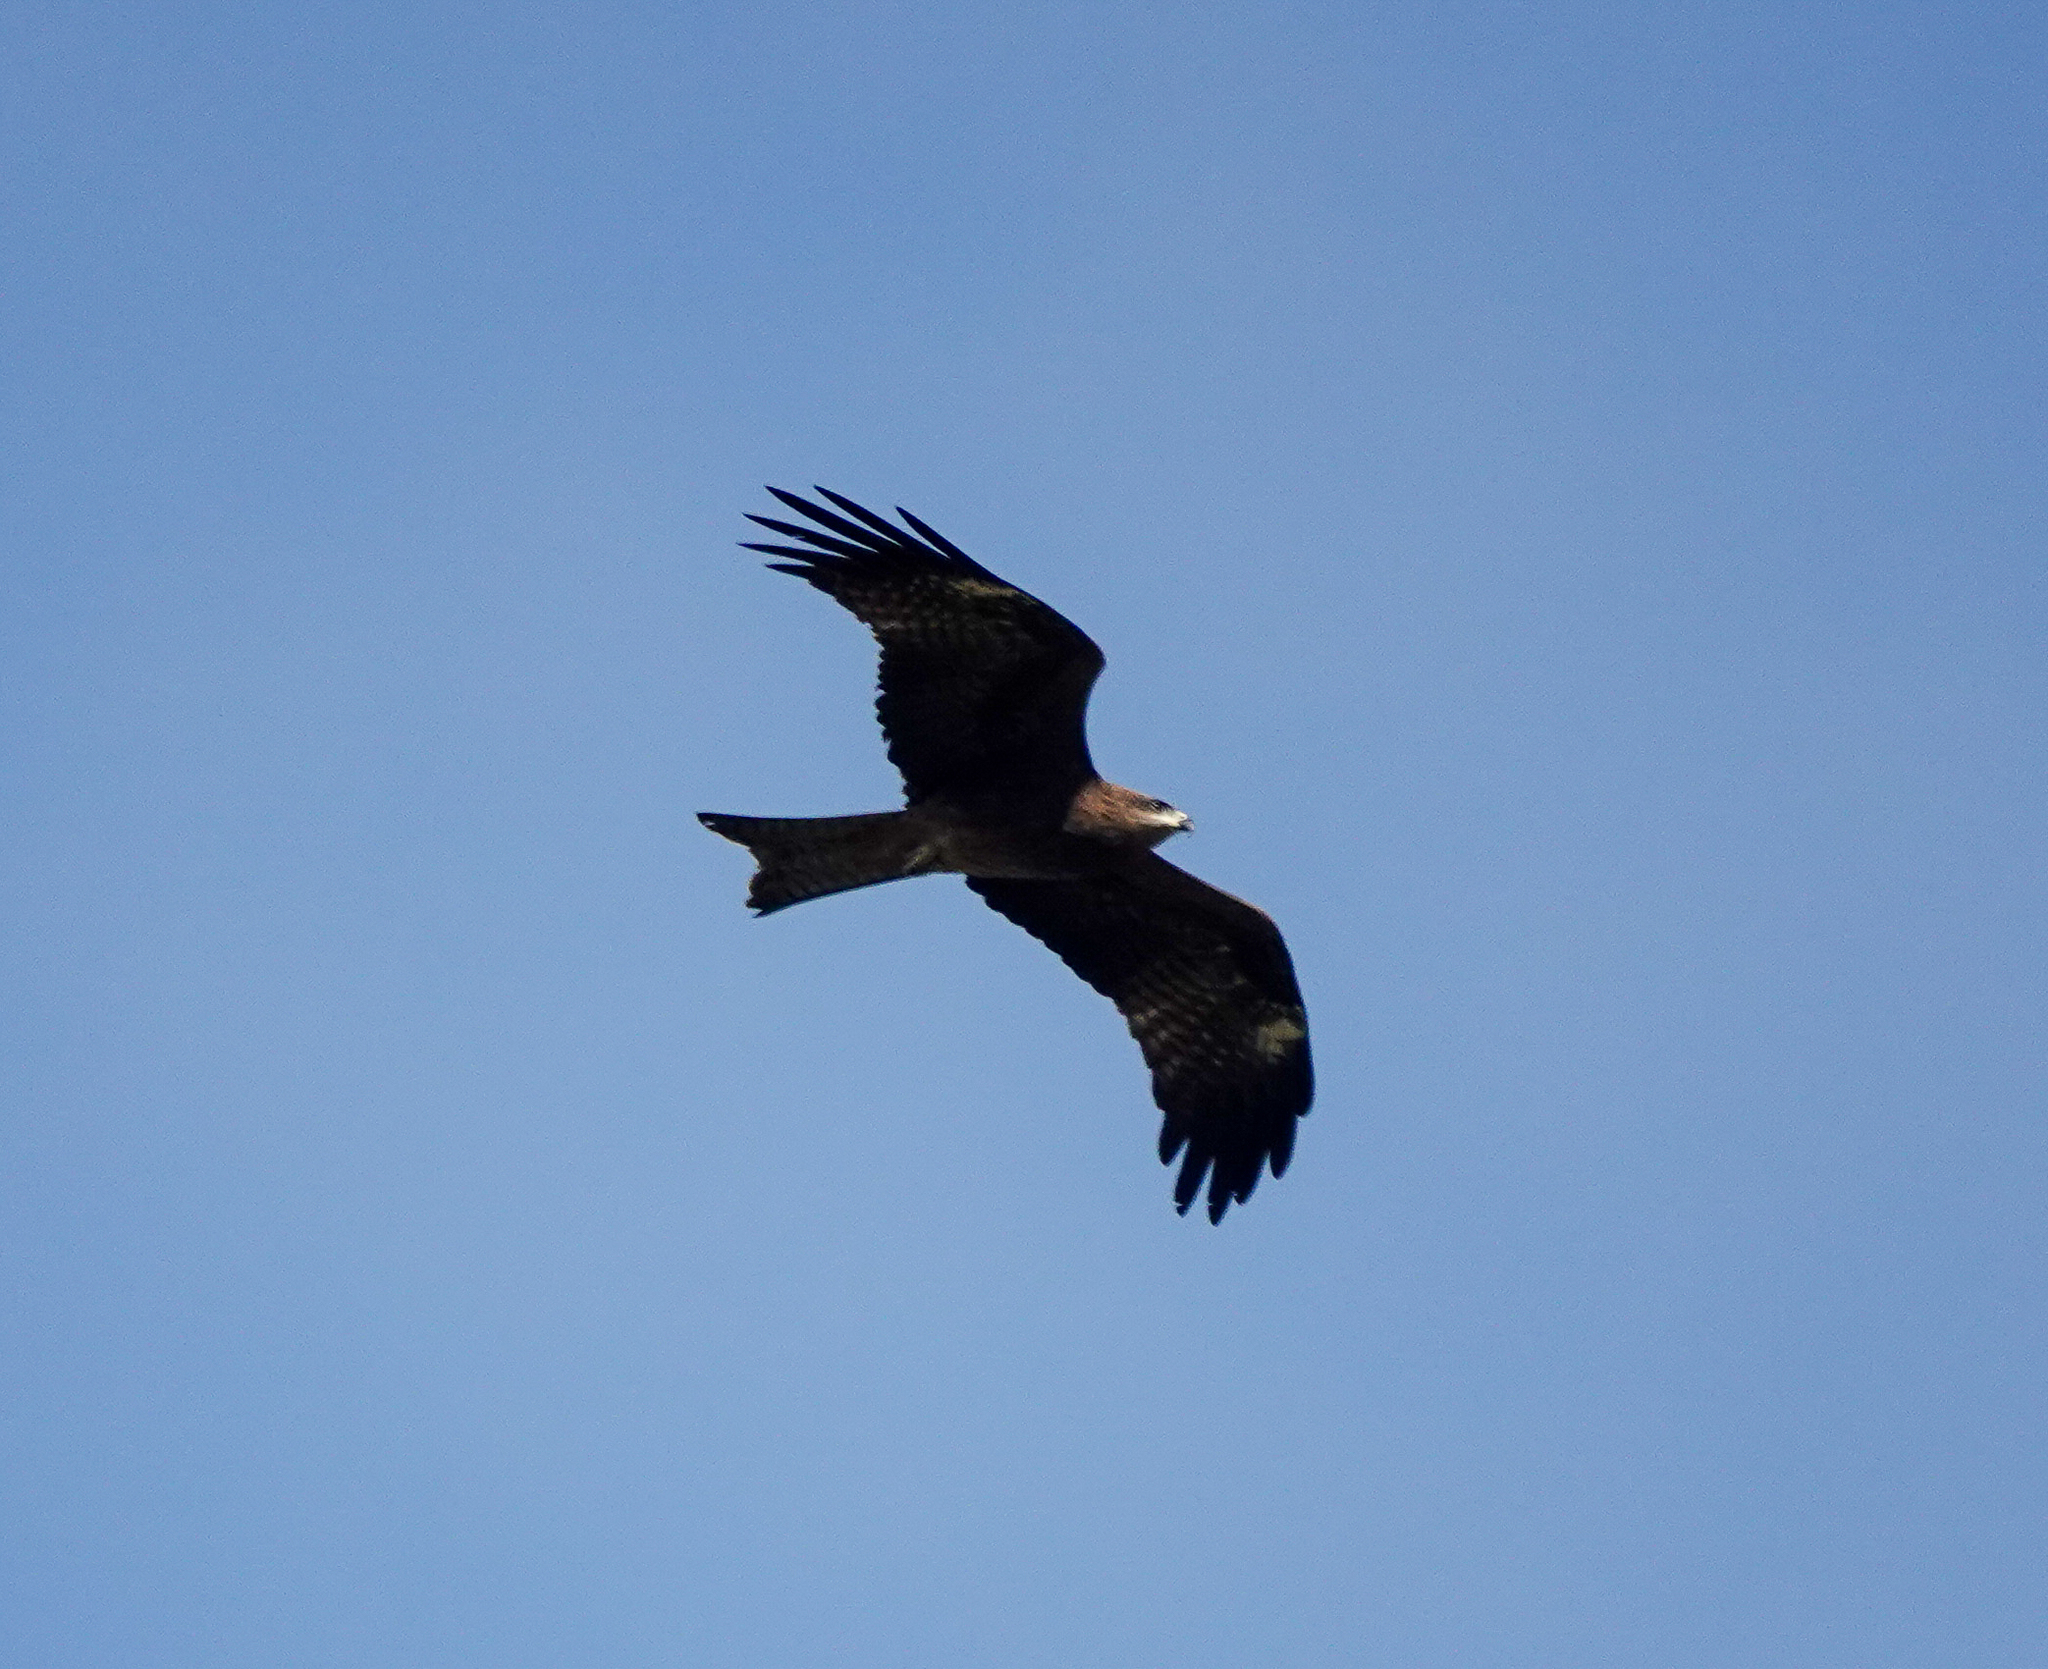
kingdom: Animalia
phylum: Chordata
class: Aves
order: Accipitriformes
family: Accipitridae
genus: Milvus
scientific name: Milvus migrans
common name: Black kite
